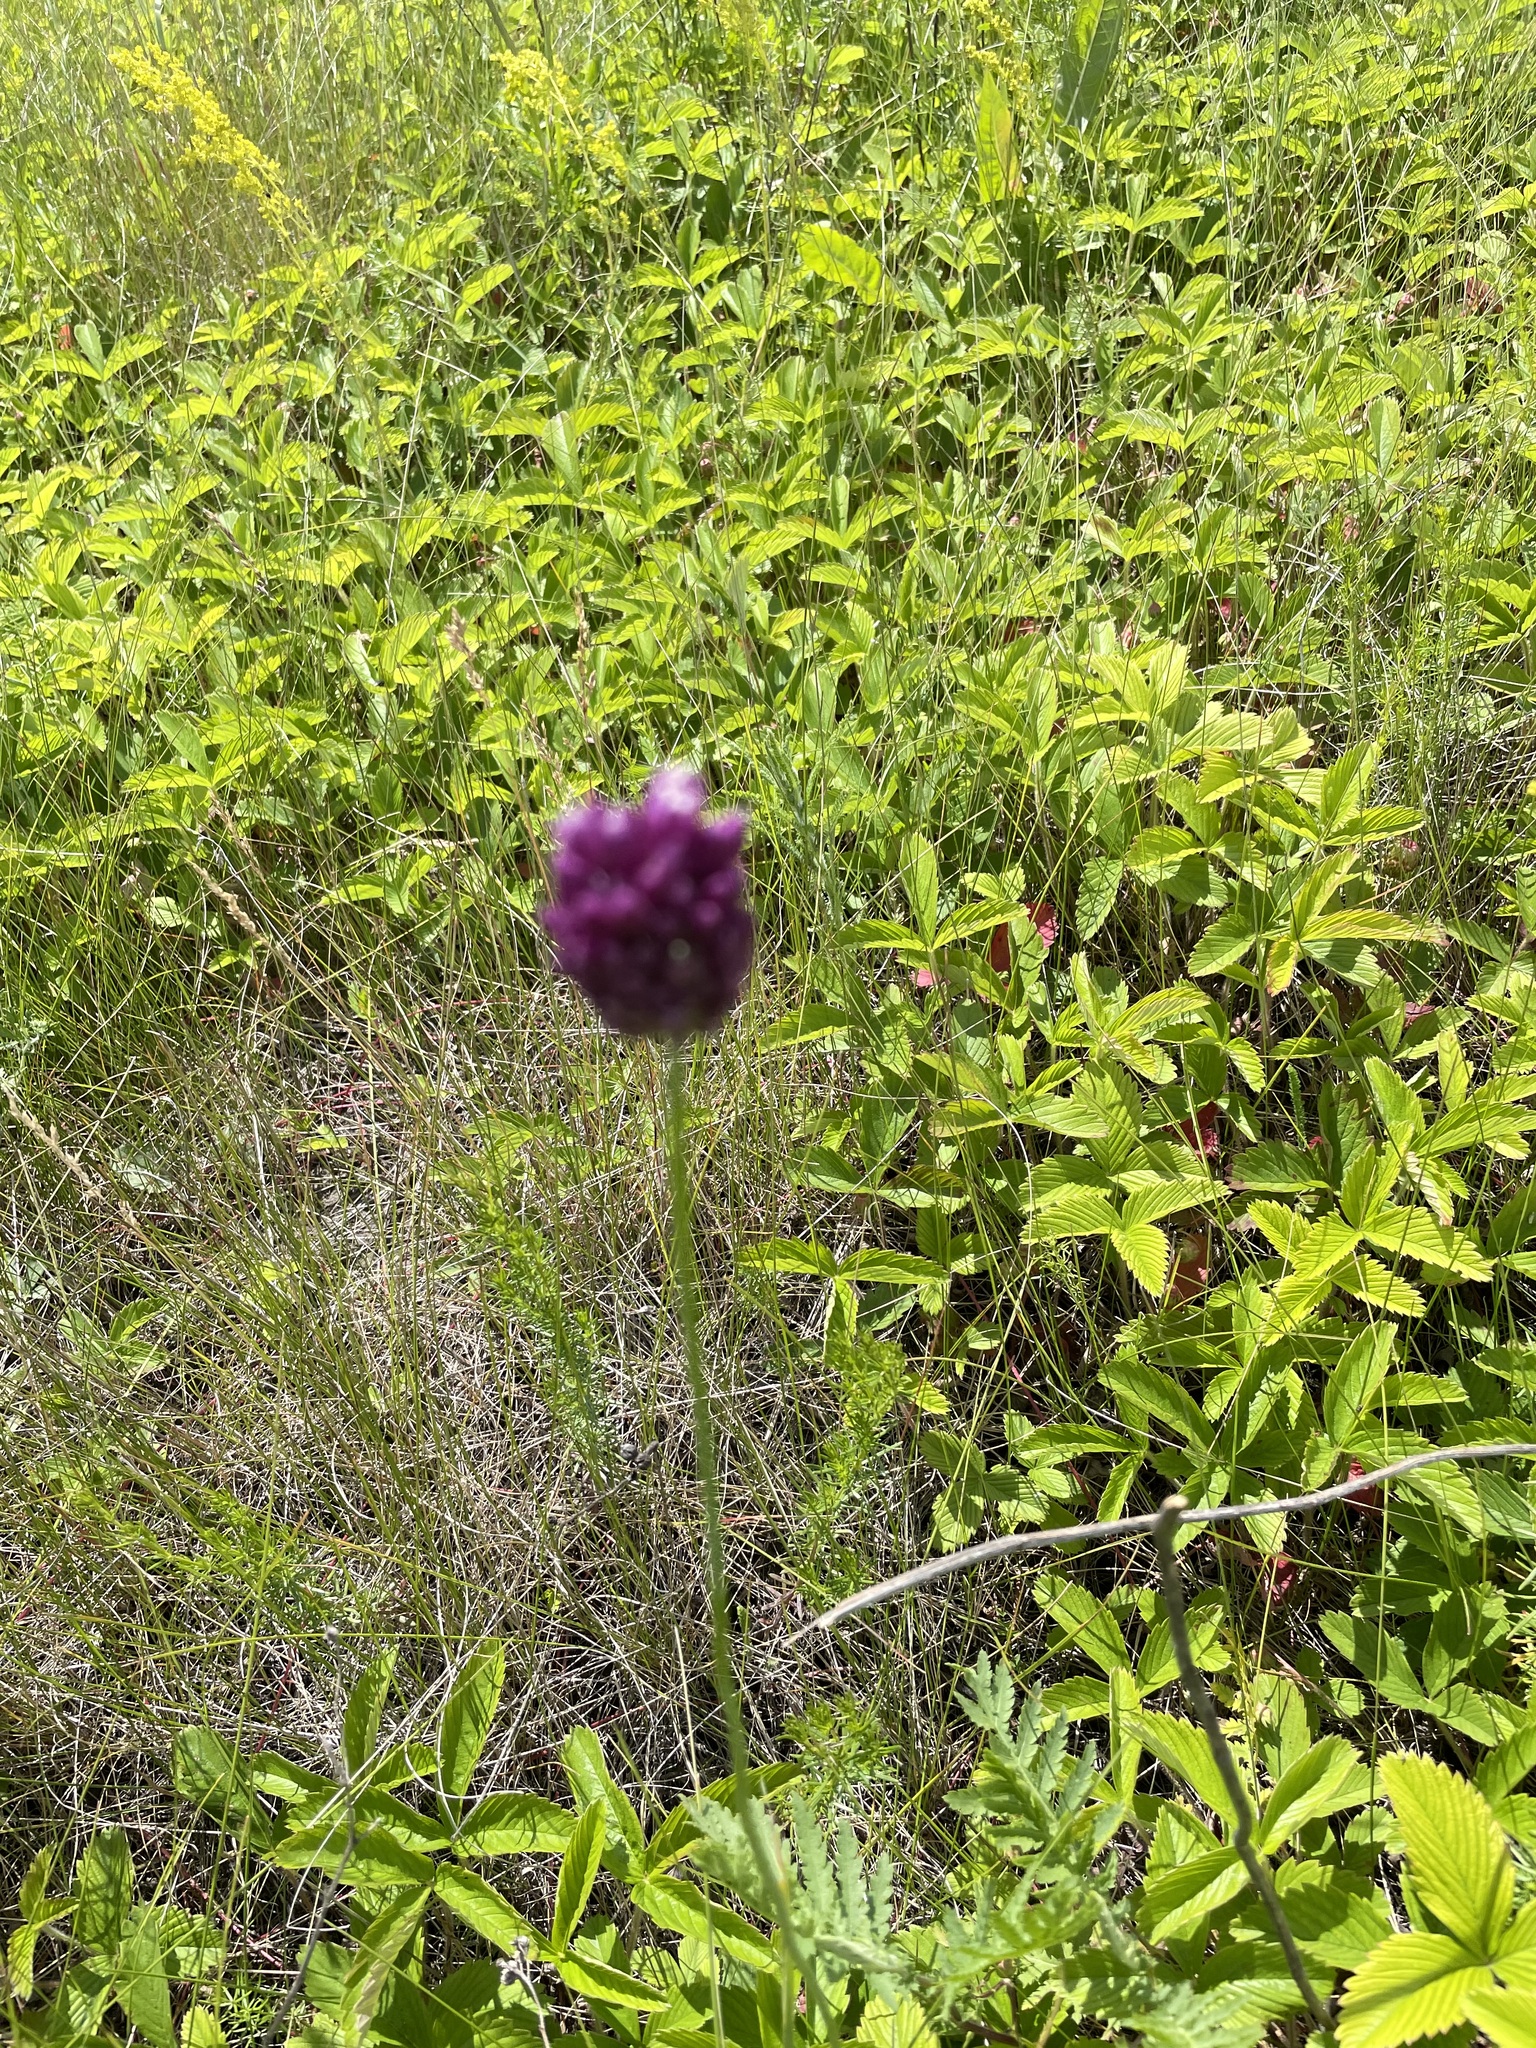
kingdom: Plantae
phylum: Tracheophyta
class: Liliopsida
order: Asparagales
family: Amaryllidaceae
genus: Allium
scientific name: Allium rotundum
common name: Sand leek
